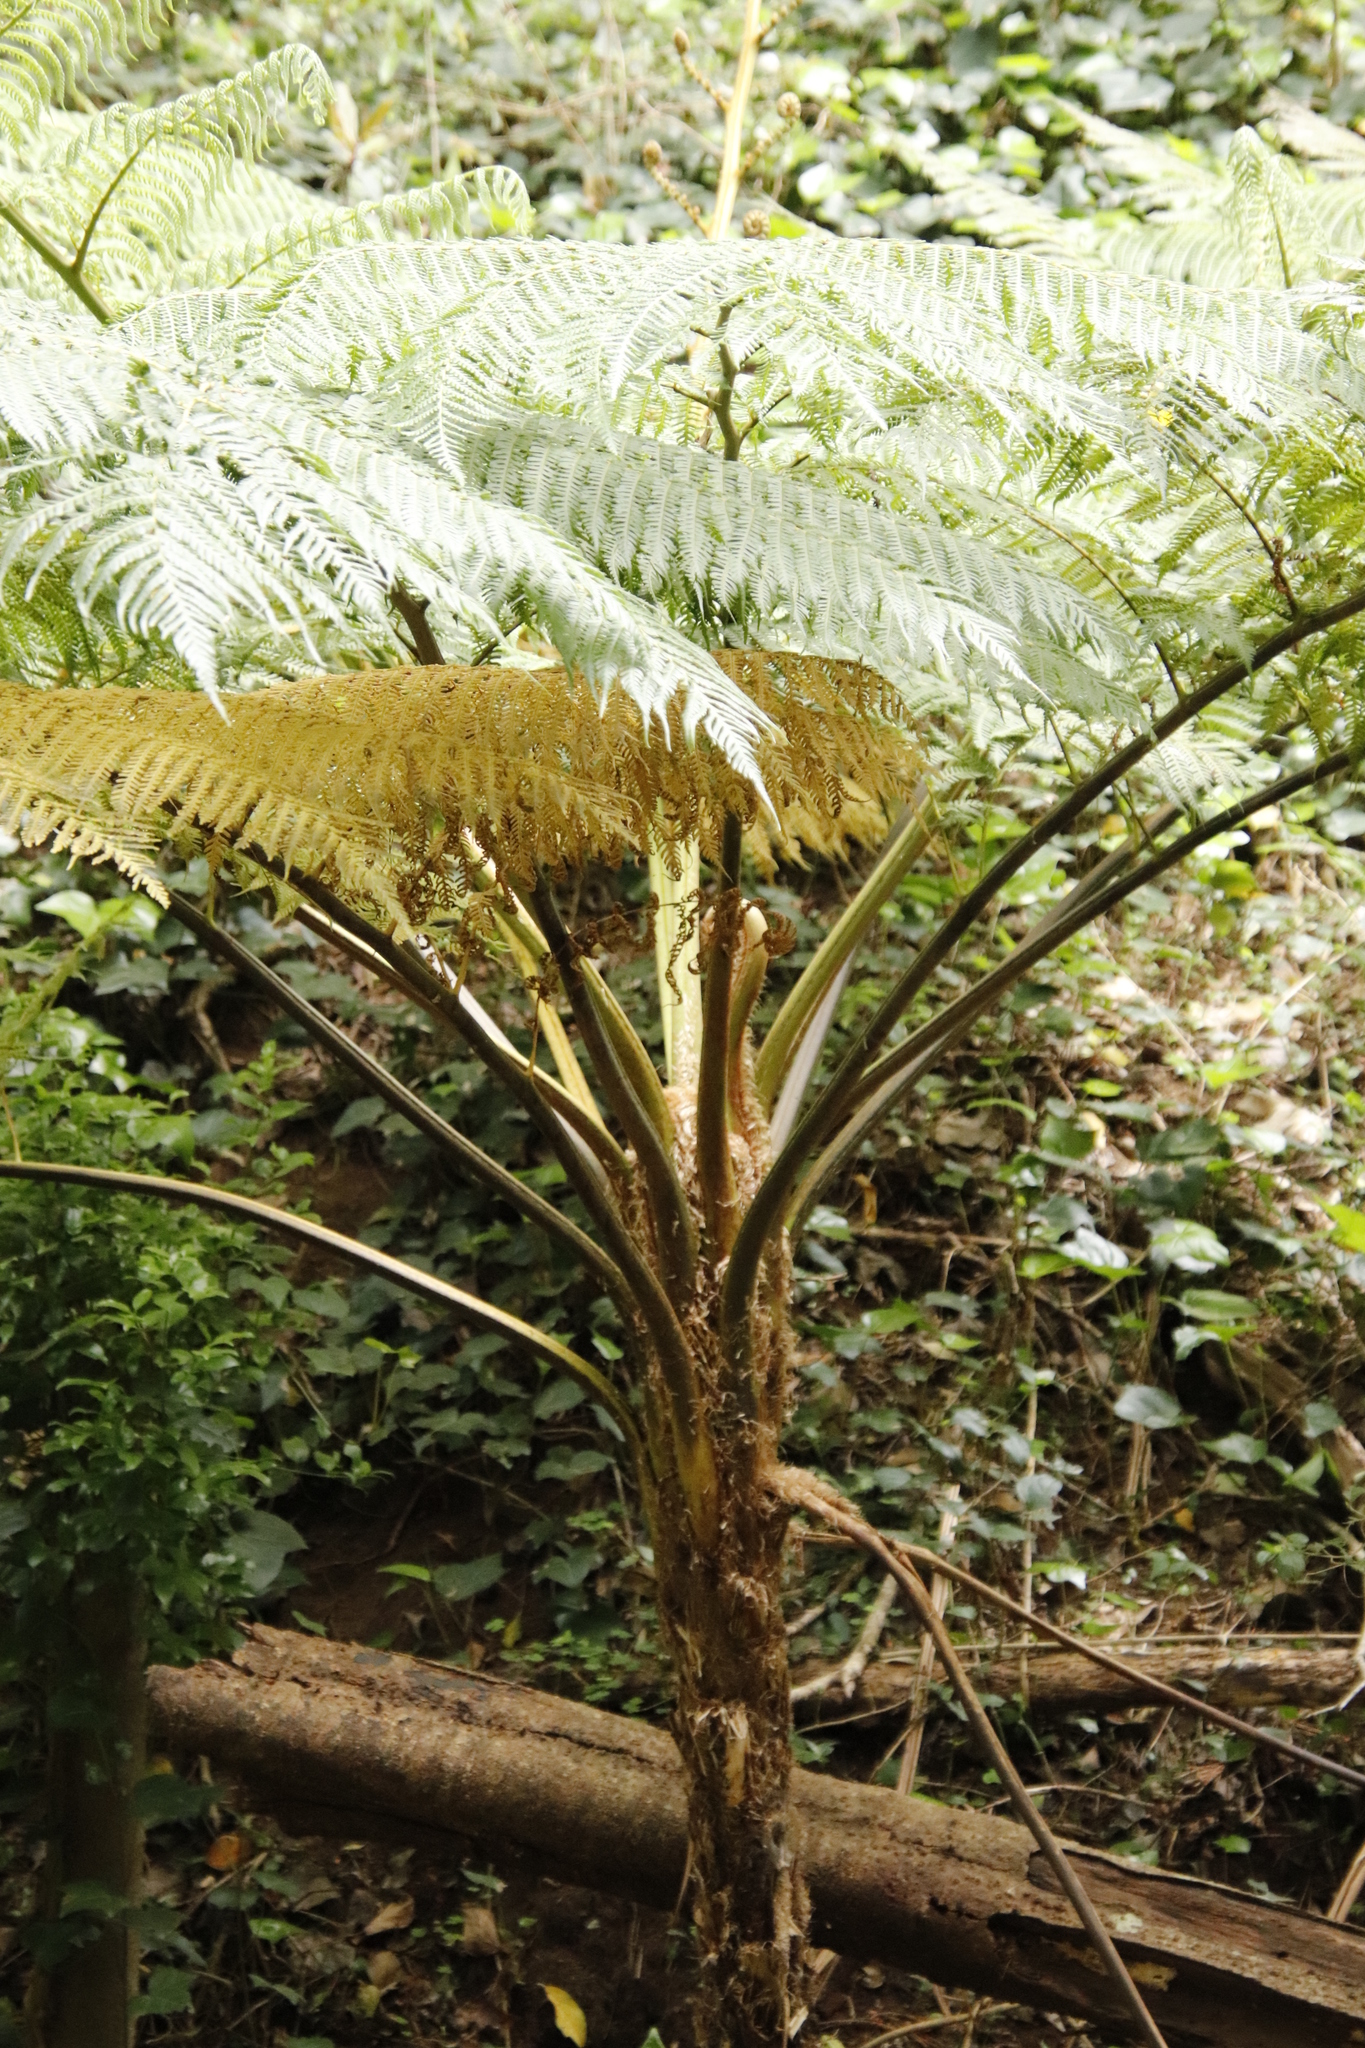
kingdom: Plantae
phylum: Tracheophyta
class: Polypodiopsida
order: Cyatheales
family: Cyatheaceae
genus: Sphaeropteris
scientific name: Sphaeropteris cooperi
